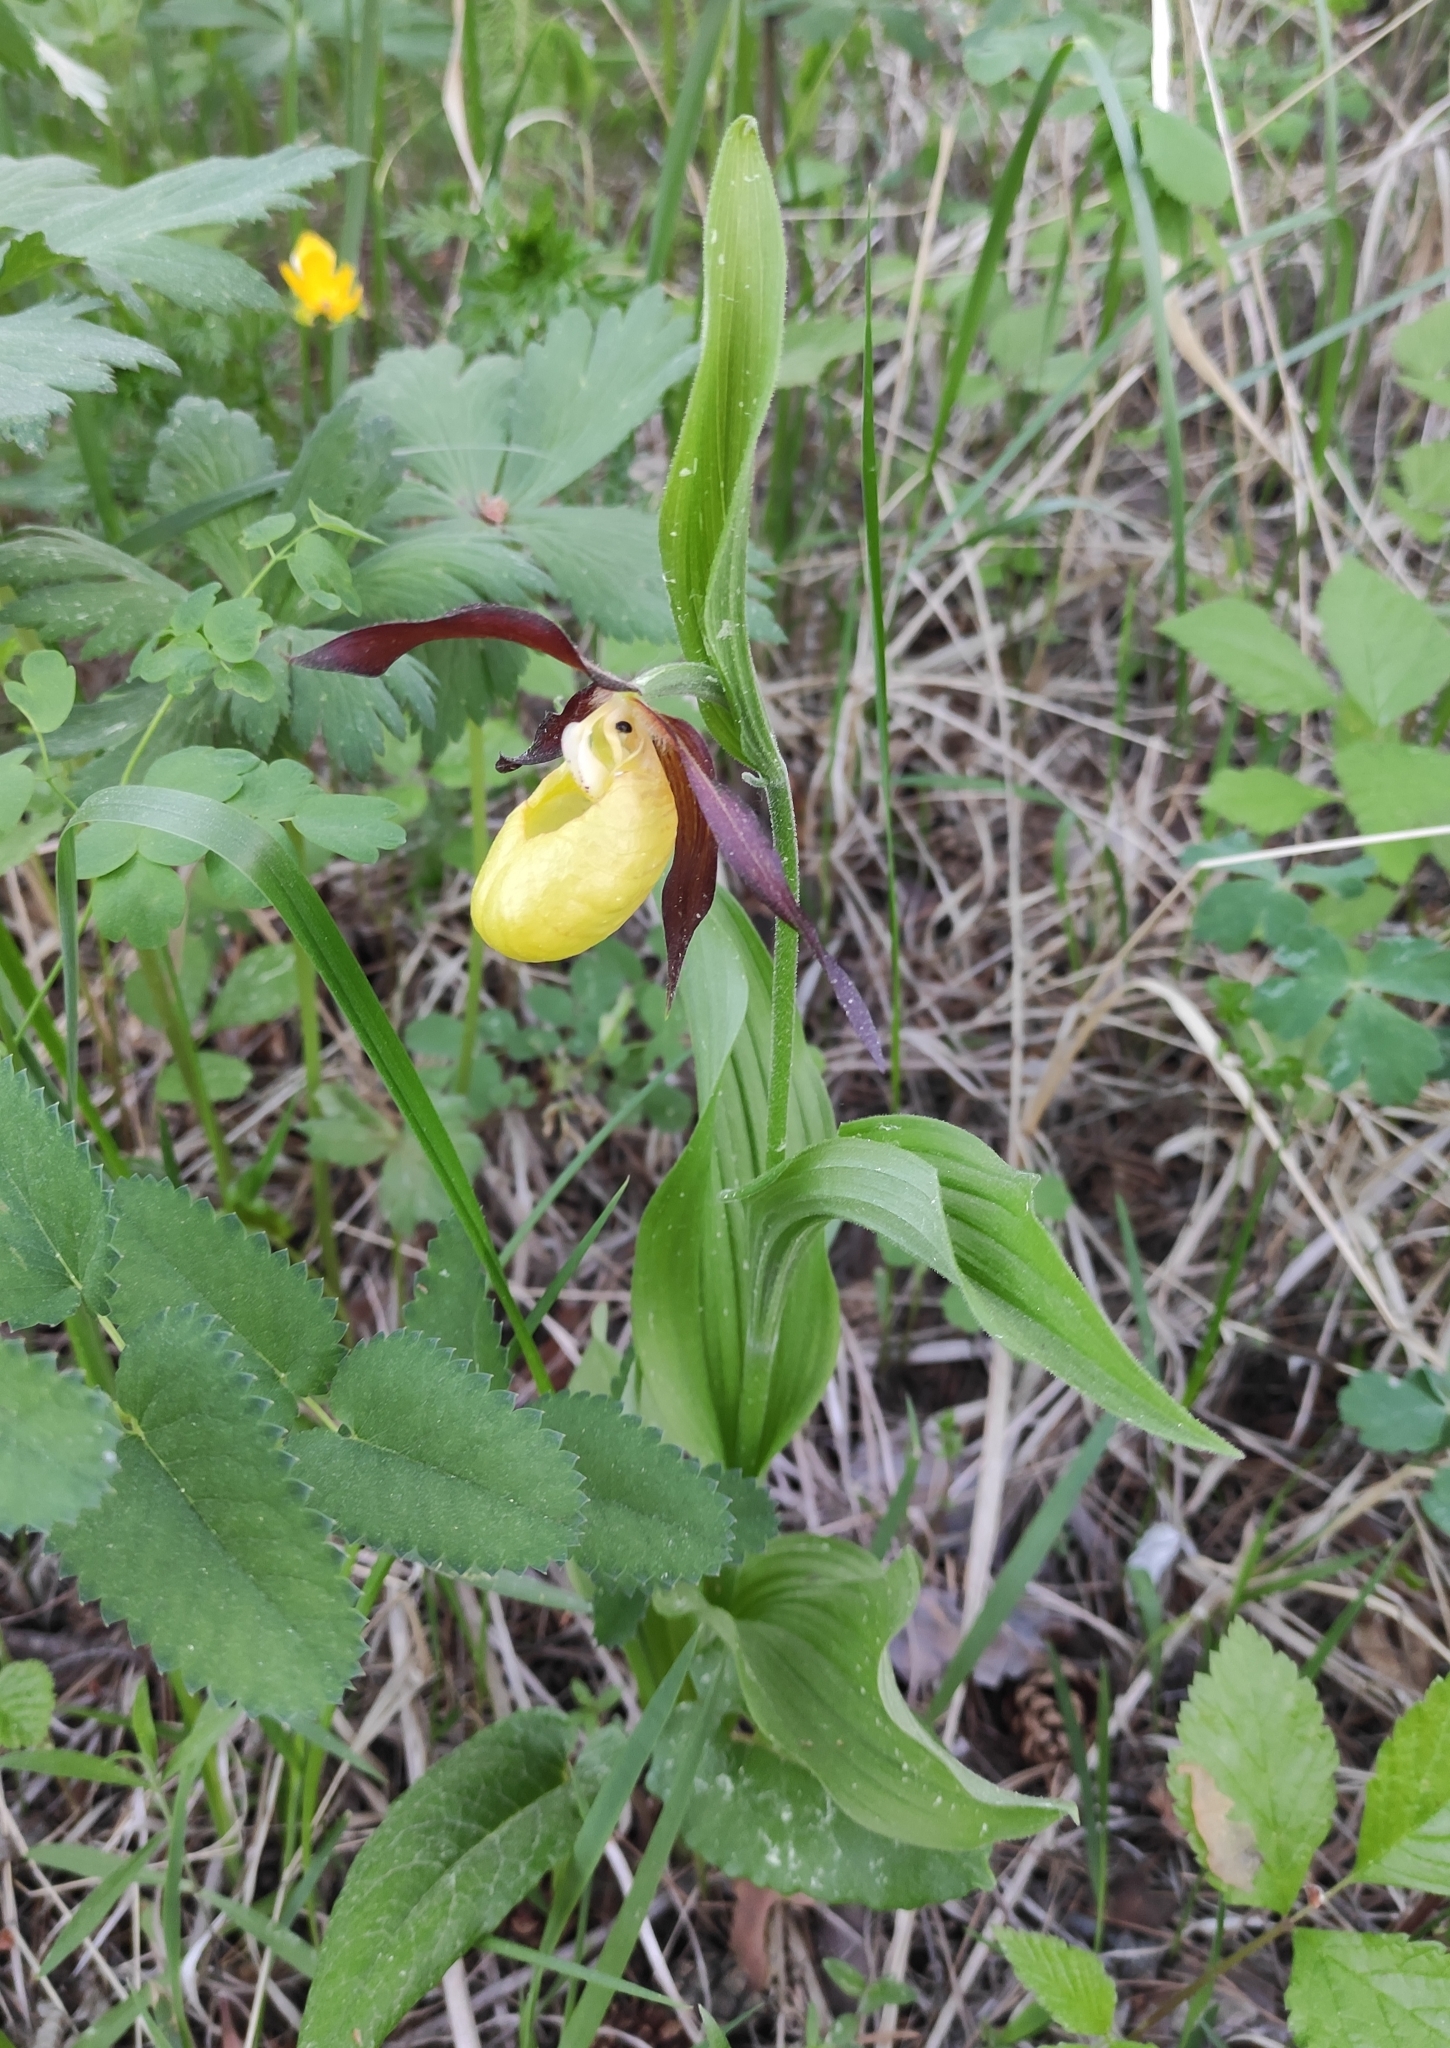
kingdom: Plantae
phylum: Tracheophyta
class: Liliopsida
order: Asparagales
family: Orchidaceae
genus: Cypripedium
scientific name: Cypripedium calceolus
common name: Lady's-slipper
